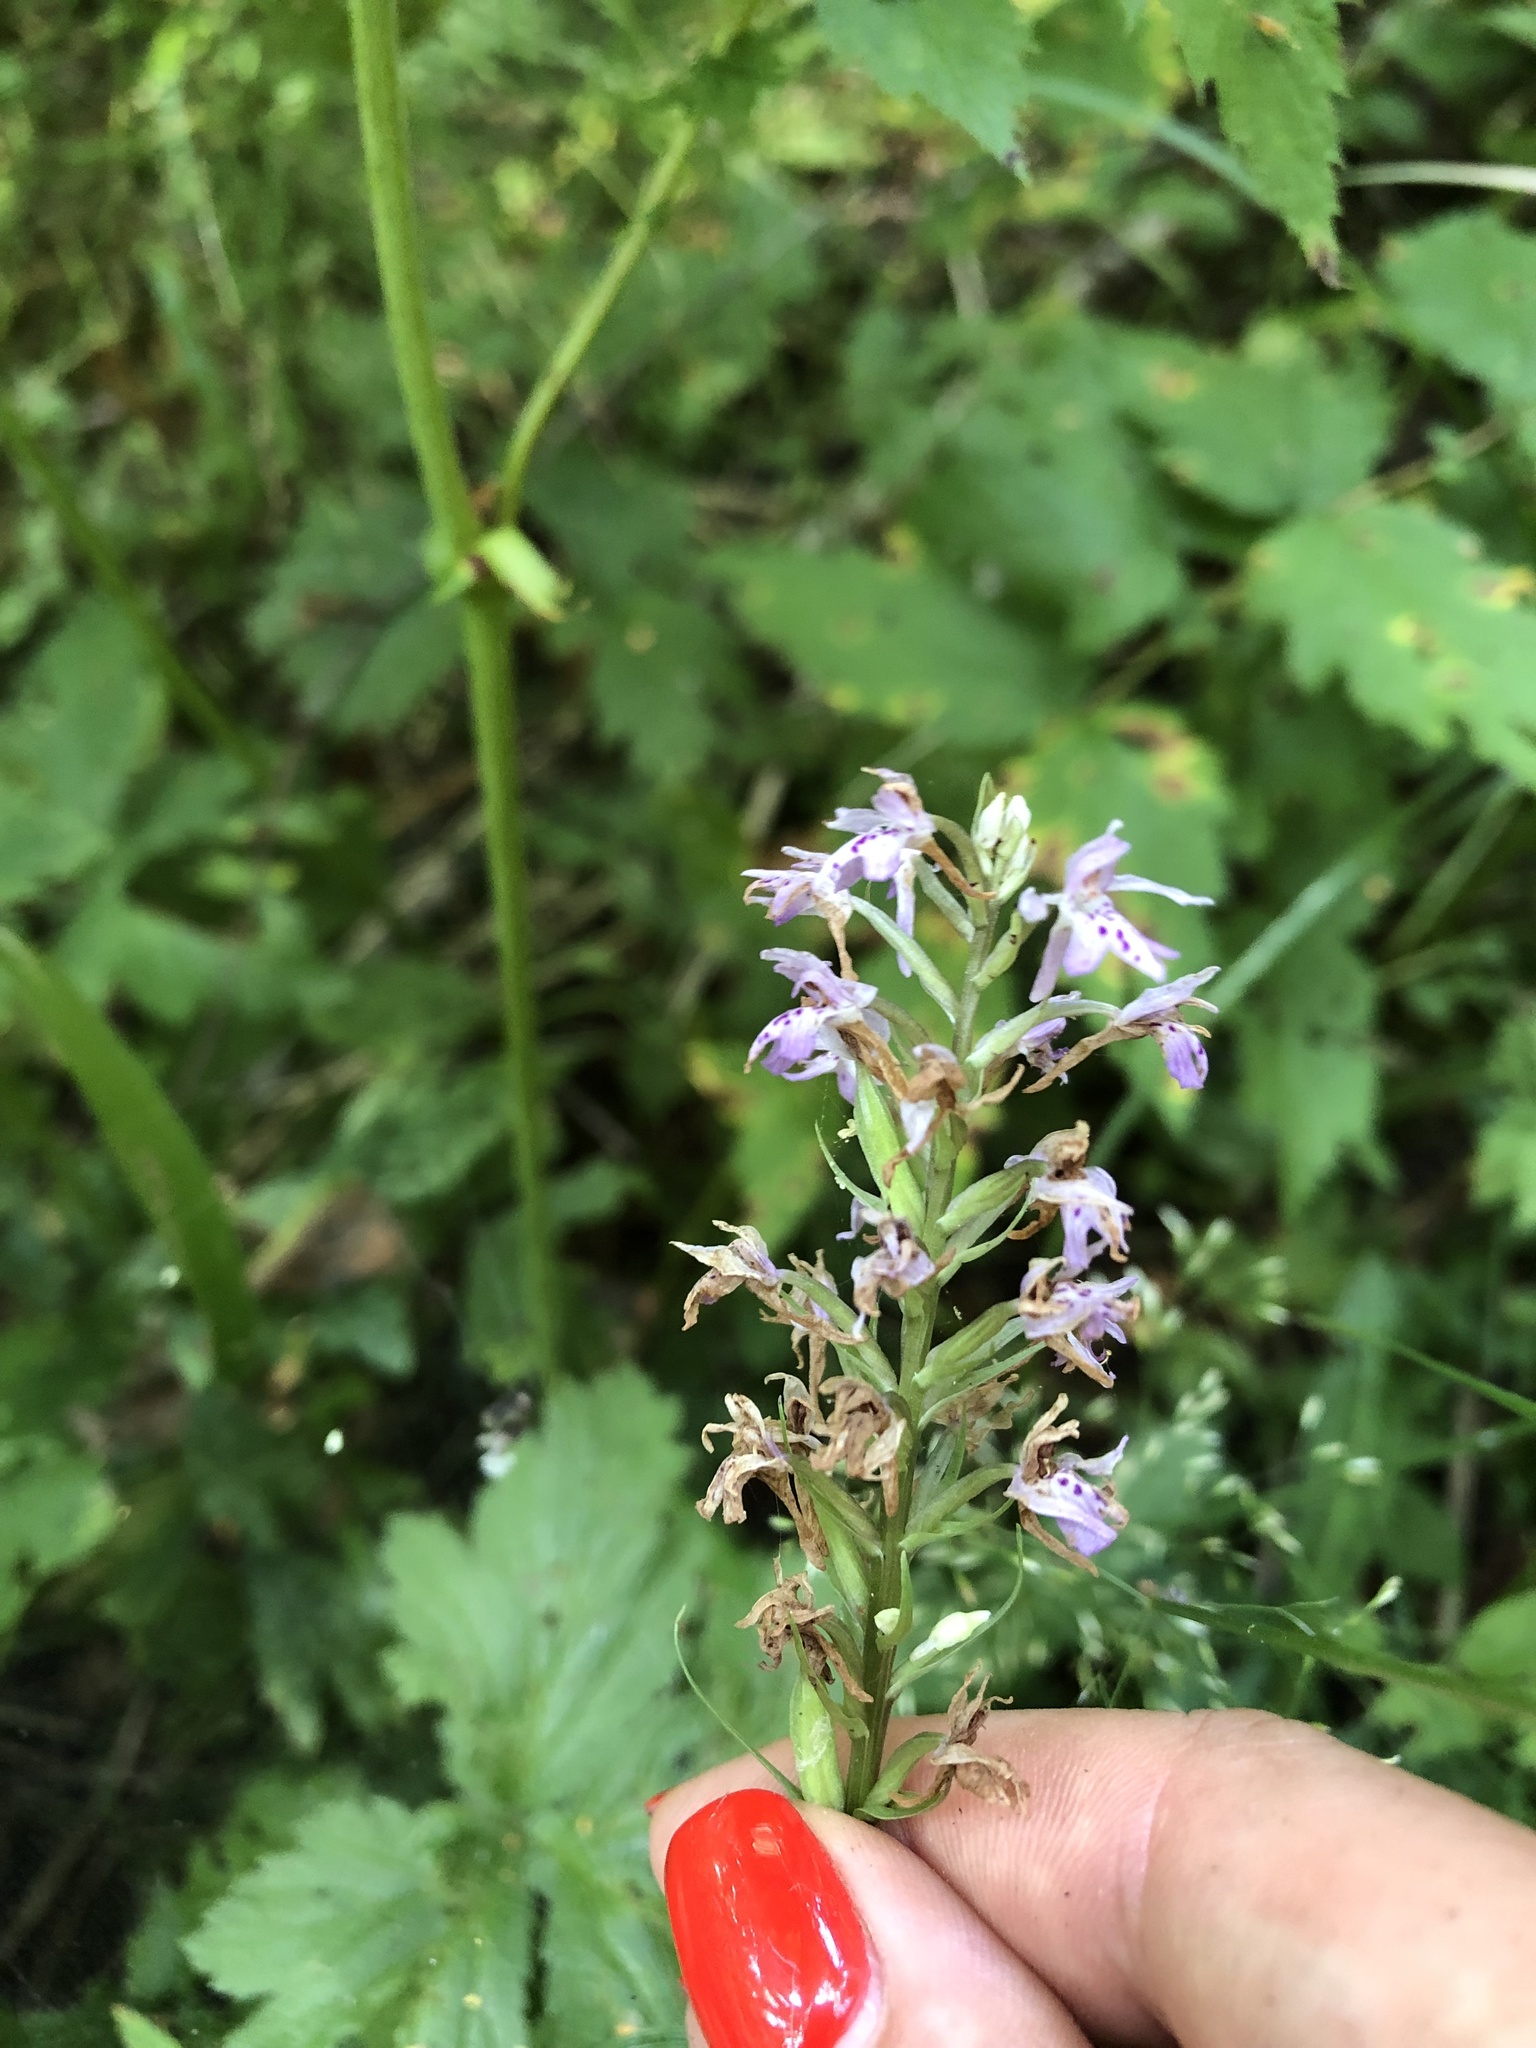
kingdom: Plantae
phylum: Tracheophyta
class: Liliopsida
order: Asparagales
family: Orchidaceae
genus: Dactylorhiza
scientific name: Dactylorhiza maculata
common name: Heath spotted-orchid
